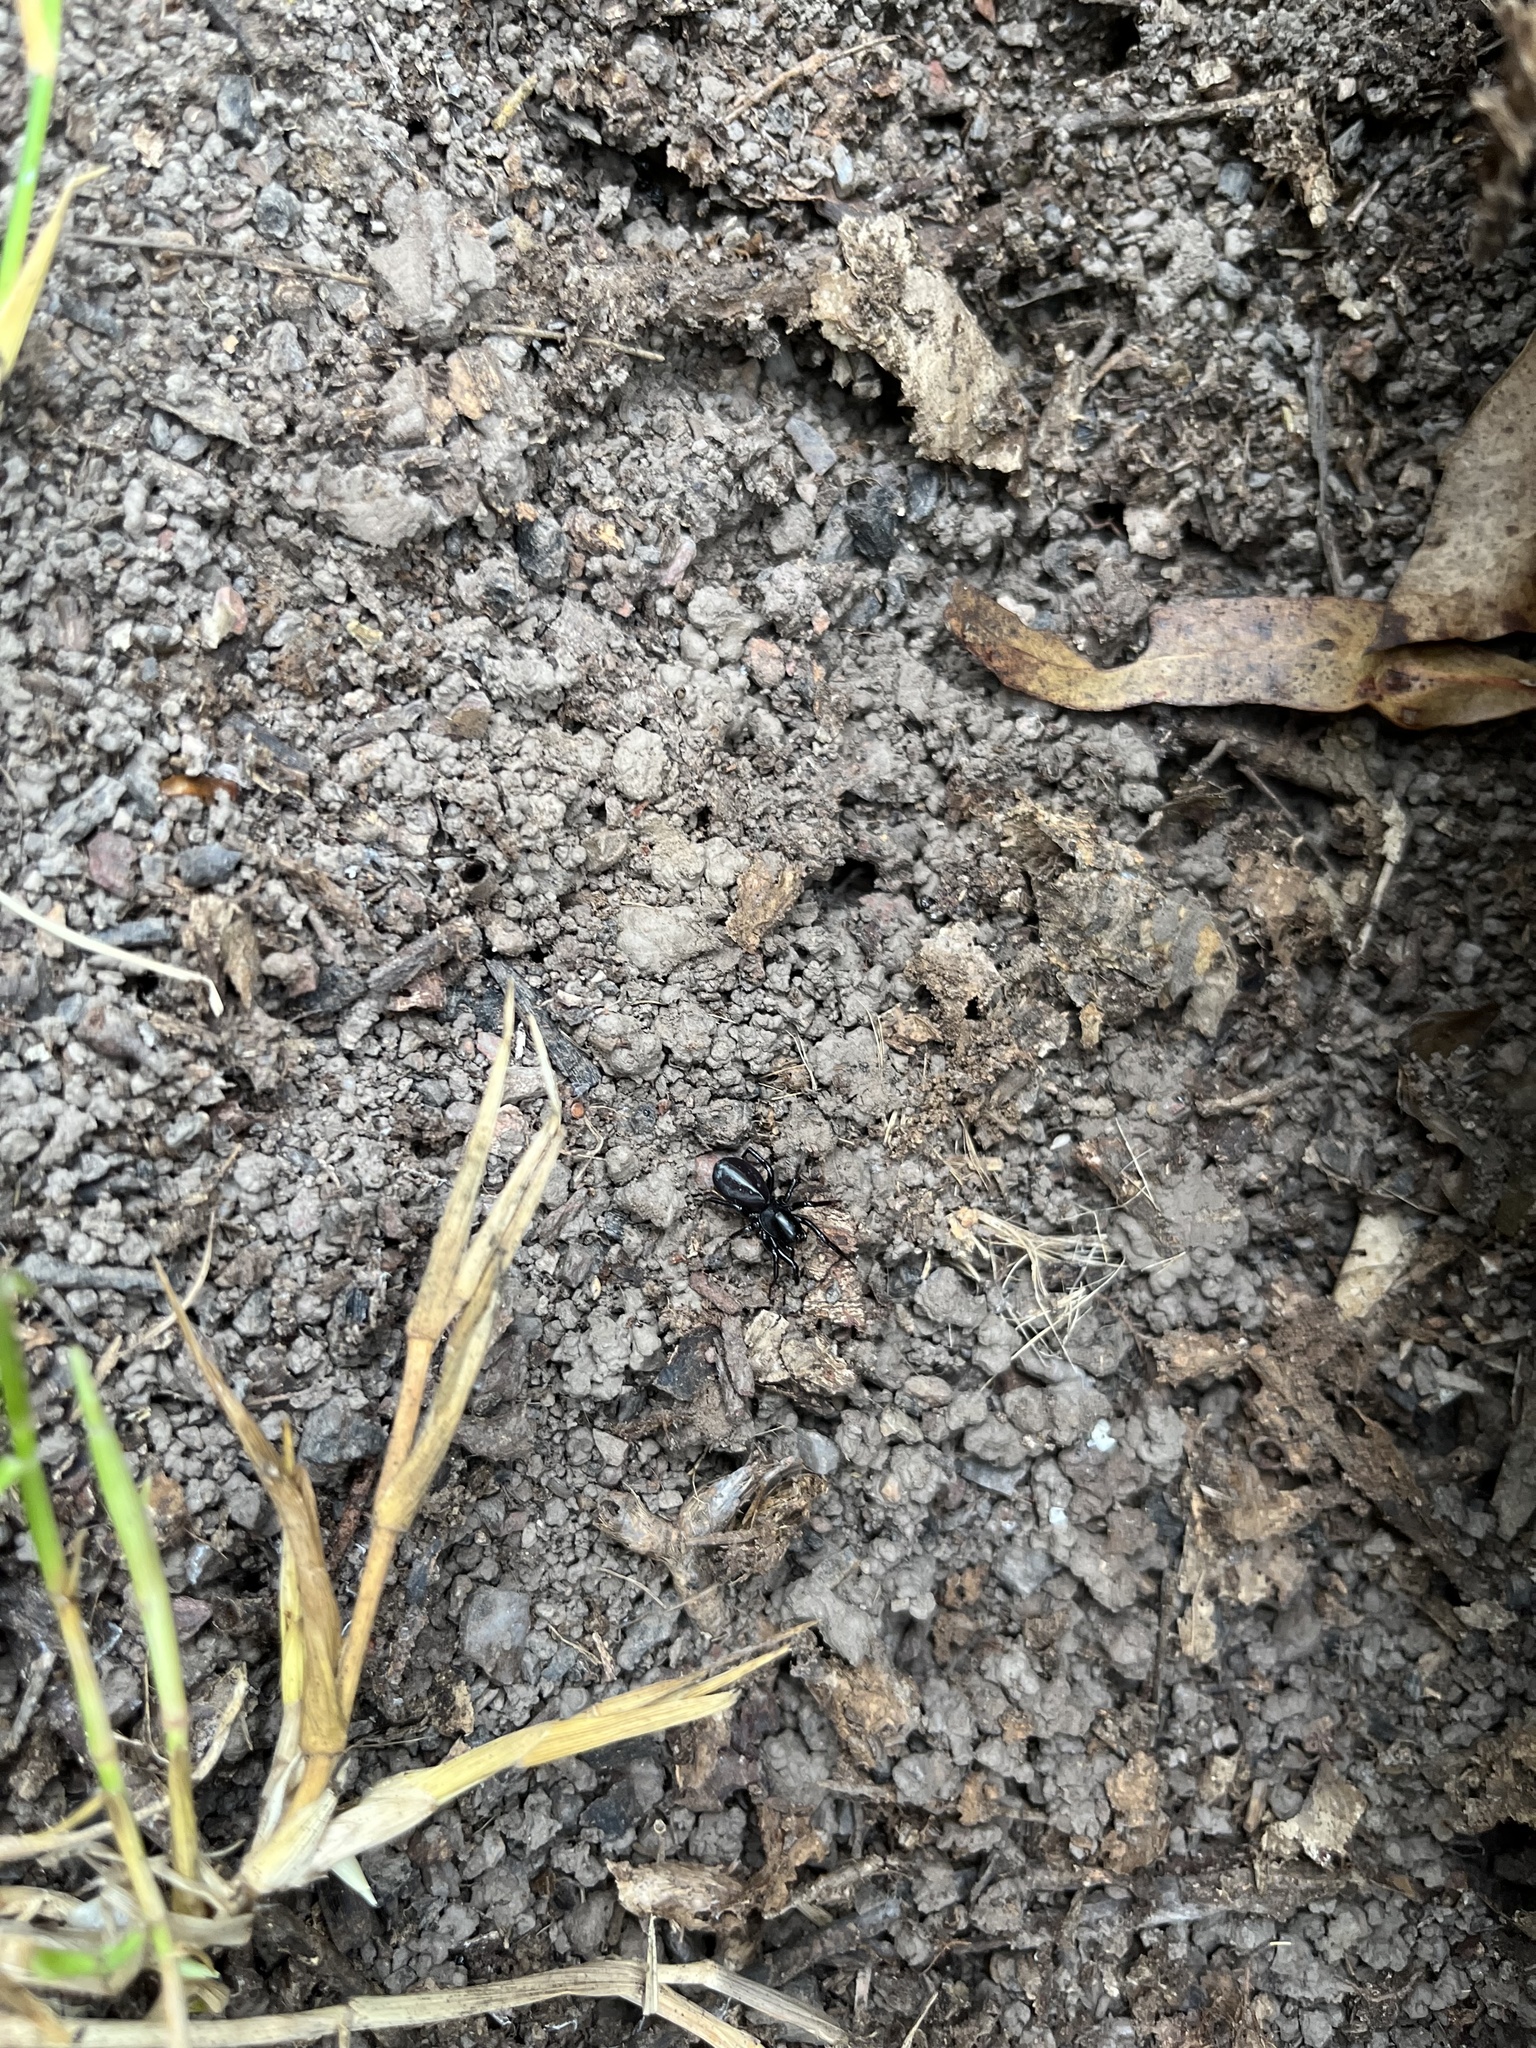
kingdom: Animalia
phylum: Arthropoda
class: Arachnida
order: Araneae
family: Zodariidae
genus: Storosa
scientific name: Storosa obscura
